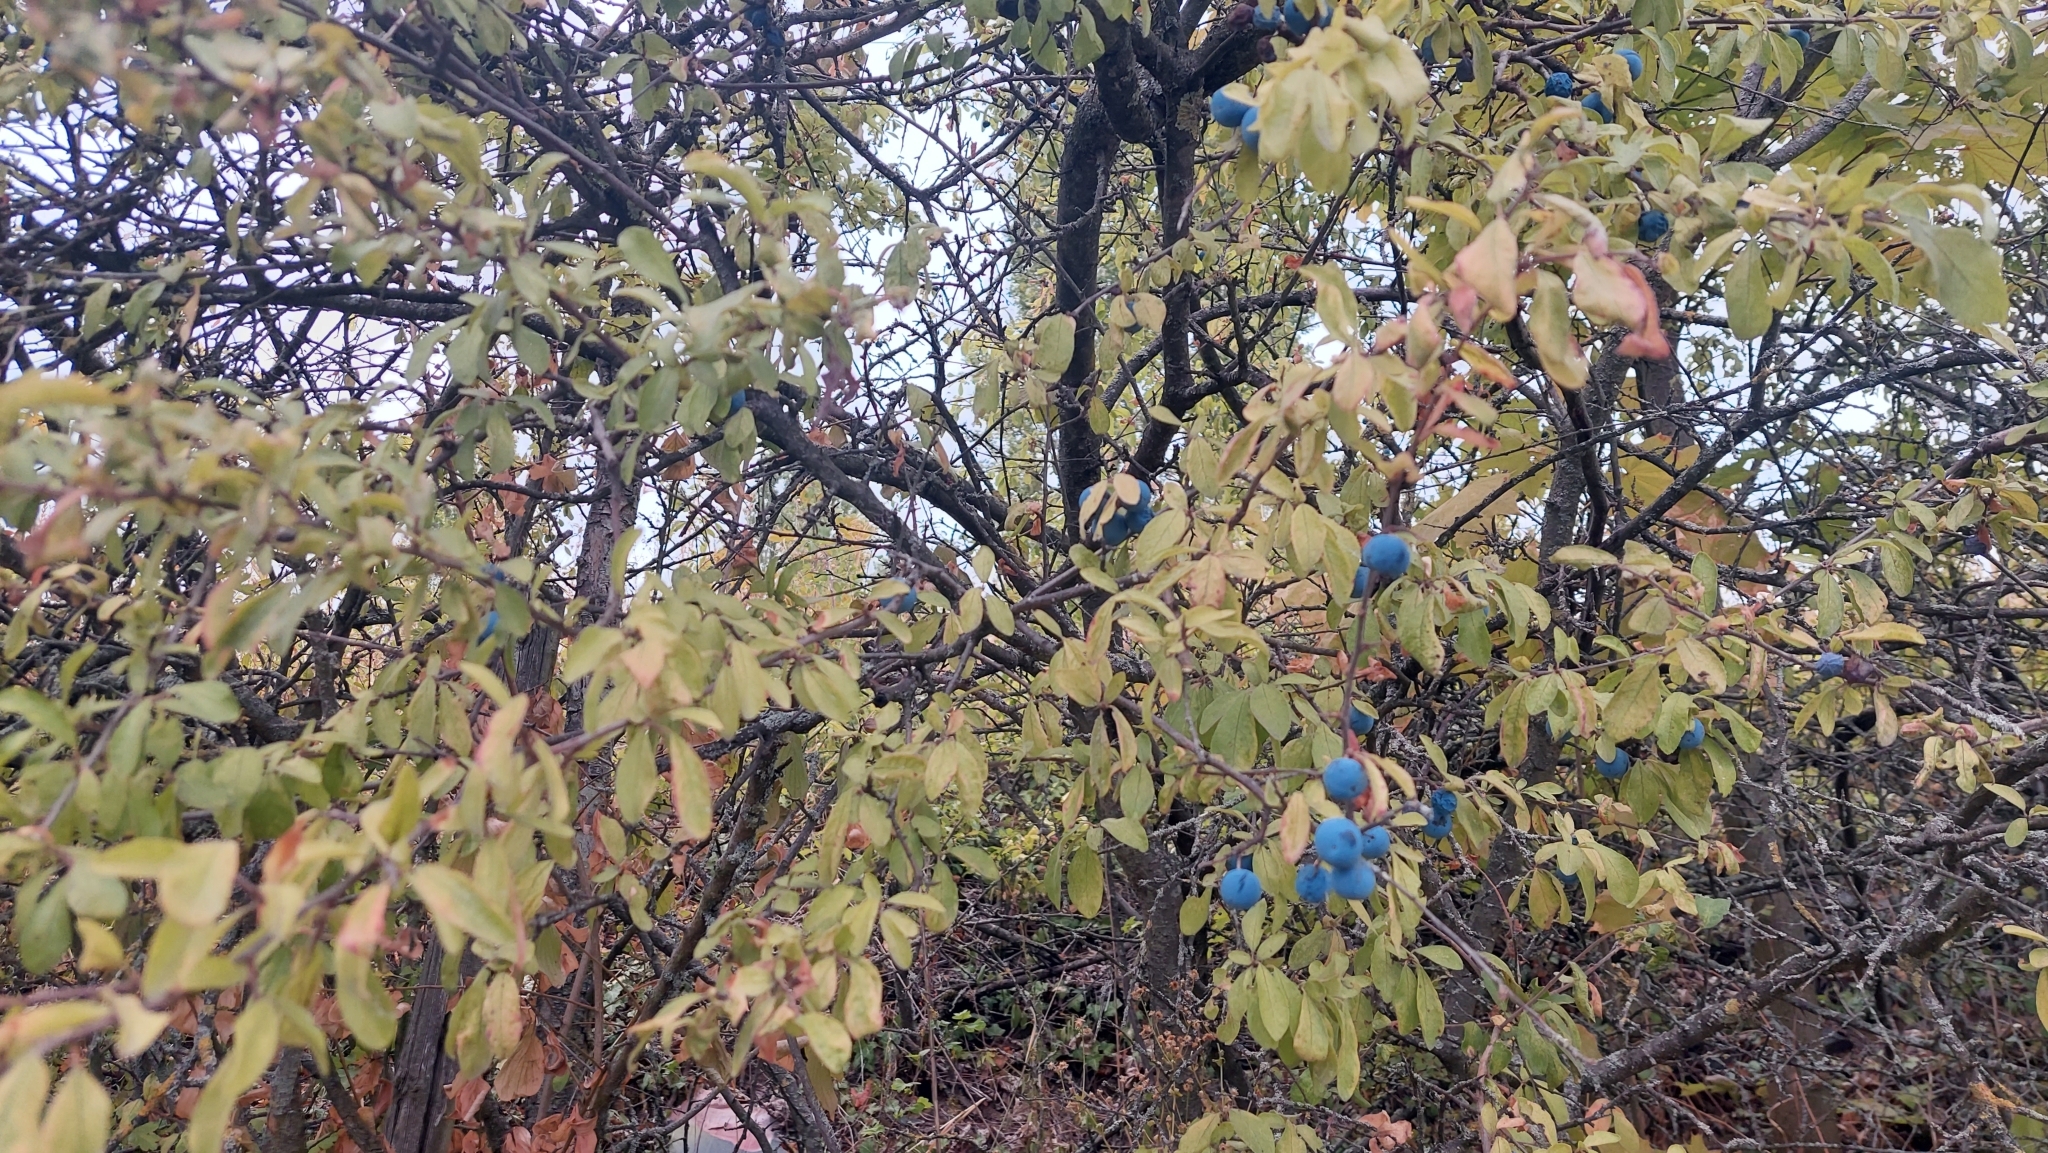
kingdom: Plantae
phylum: Tracheophyta
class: Magnoliopsida
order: Rosales
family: Rosaceae
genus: Prunus
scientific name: Prunus spinosa
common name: Blackthorn
